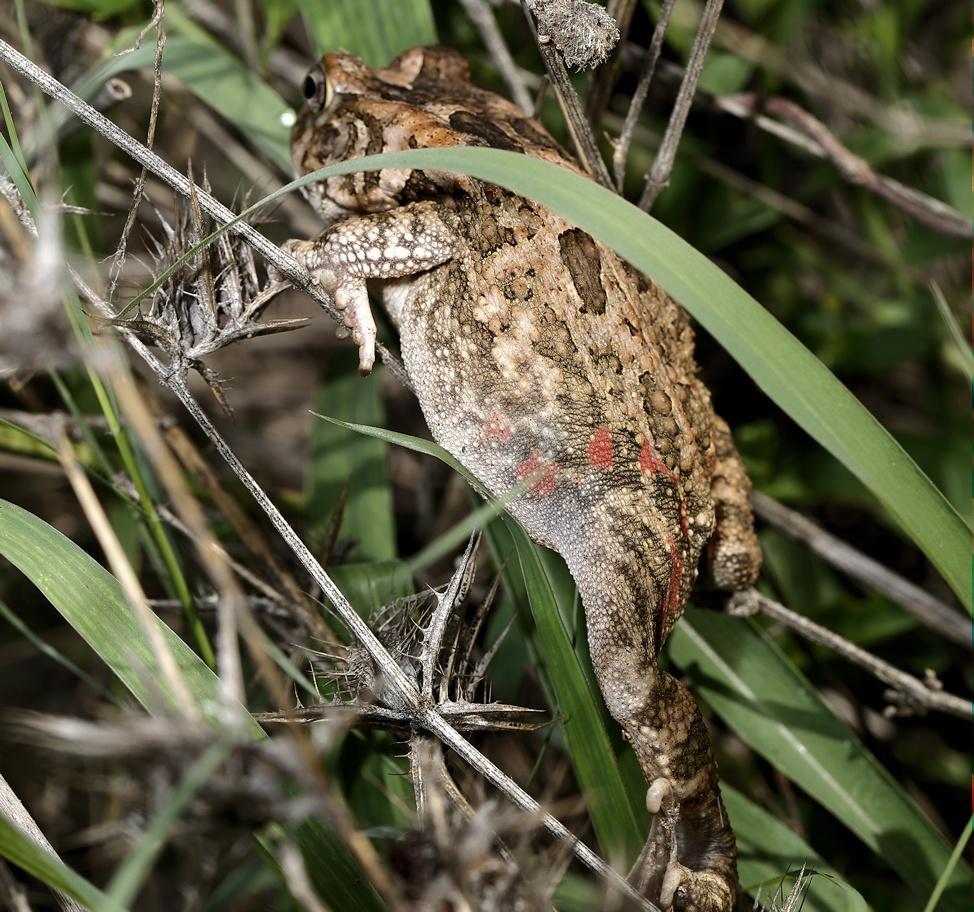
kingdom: Animalia
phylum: Chordata
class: Amphibia
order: Anura
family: Bufonidae
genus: Sclerophrys
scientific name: Sclerophrys gutturalis
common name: African common toad
